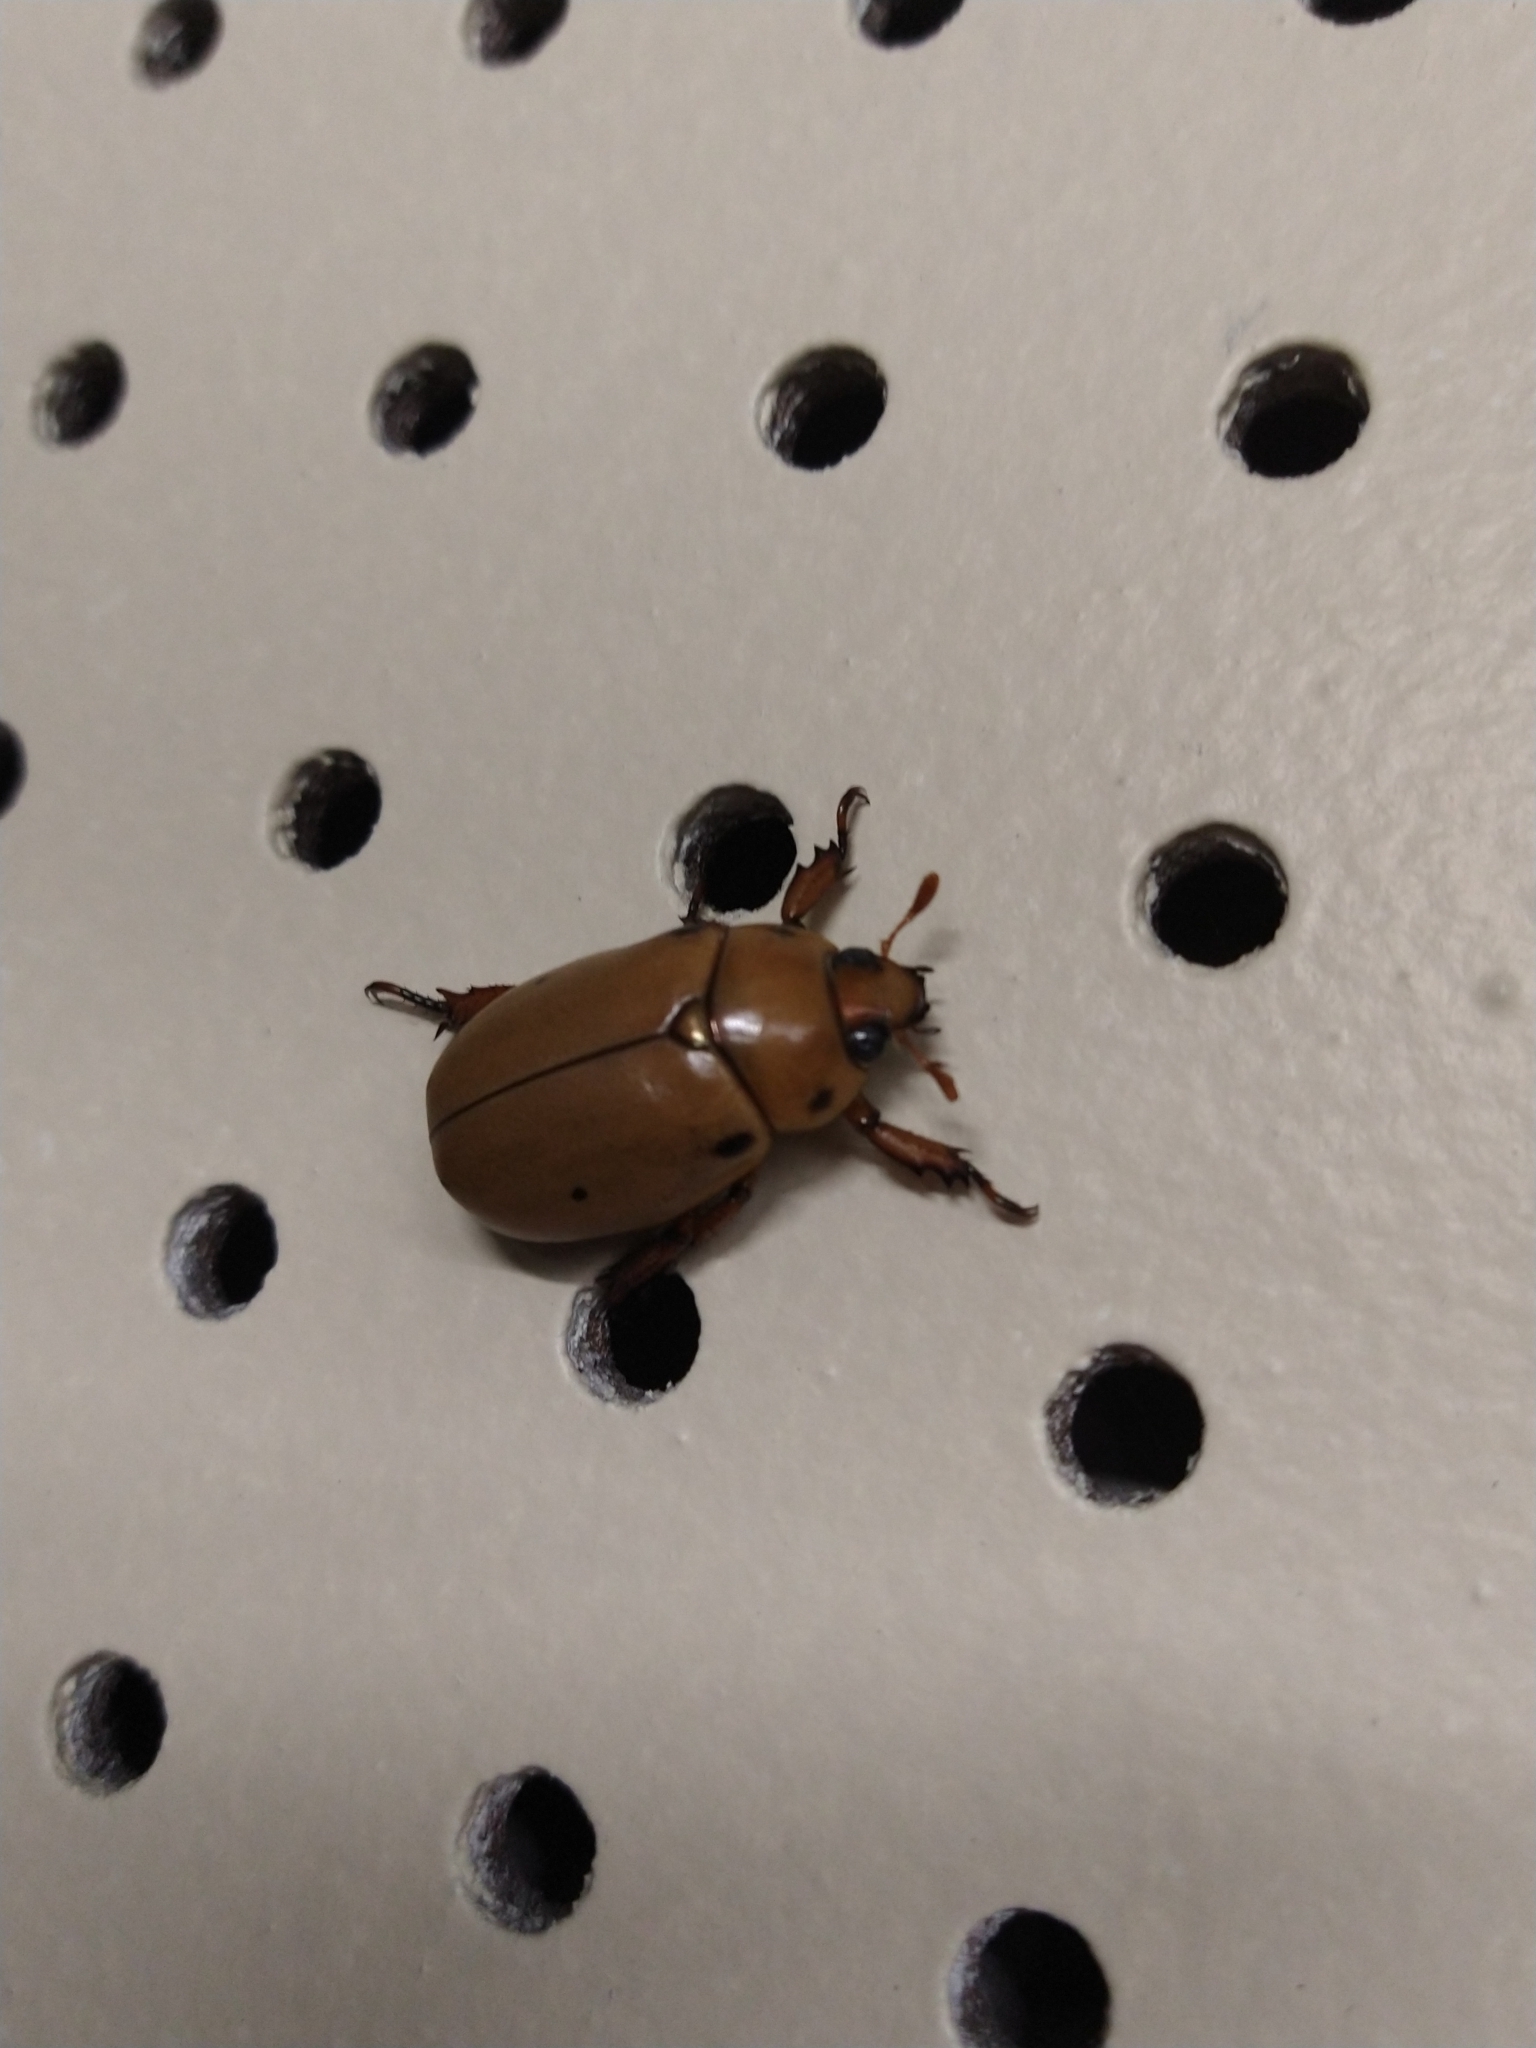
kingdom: Animalia
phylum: Arthropoda
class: Insecta
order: Coleoptera
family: Scarabaeidae
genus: Pelidnota
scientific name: Pelidnota punctata
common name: Grapevine beetle
